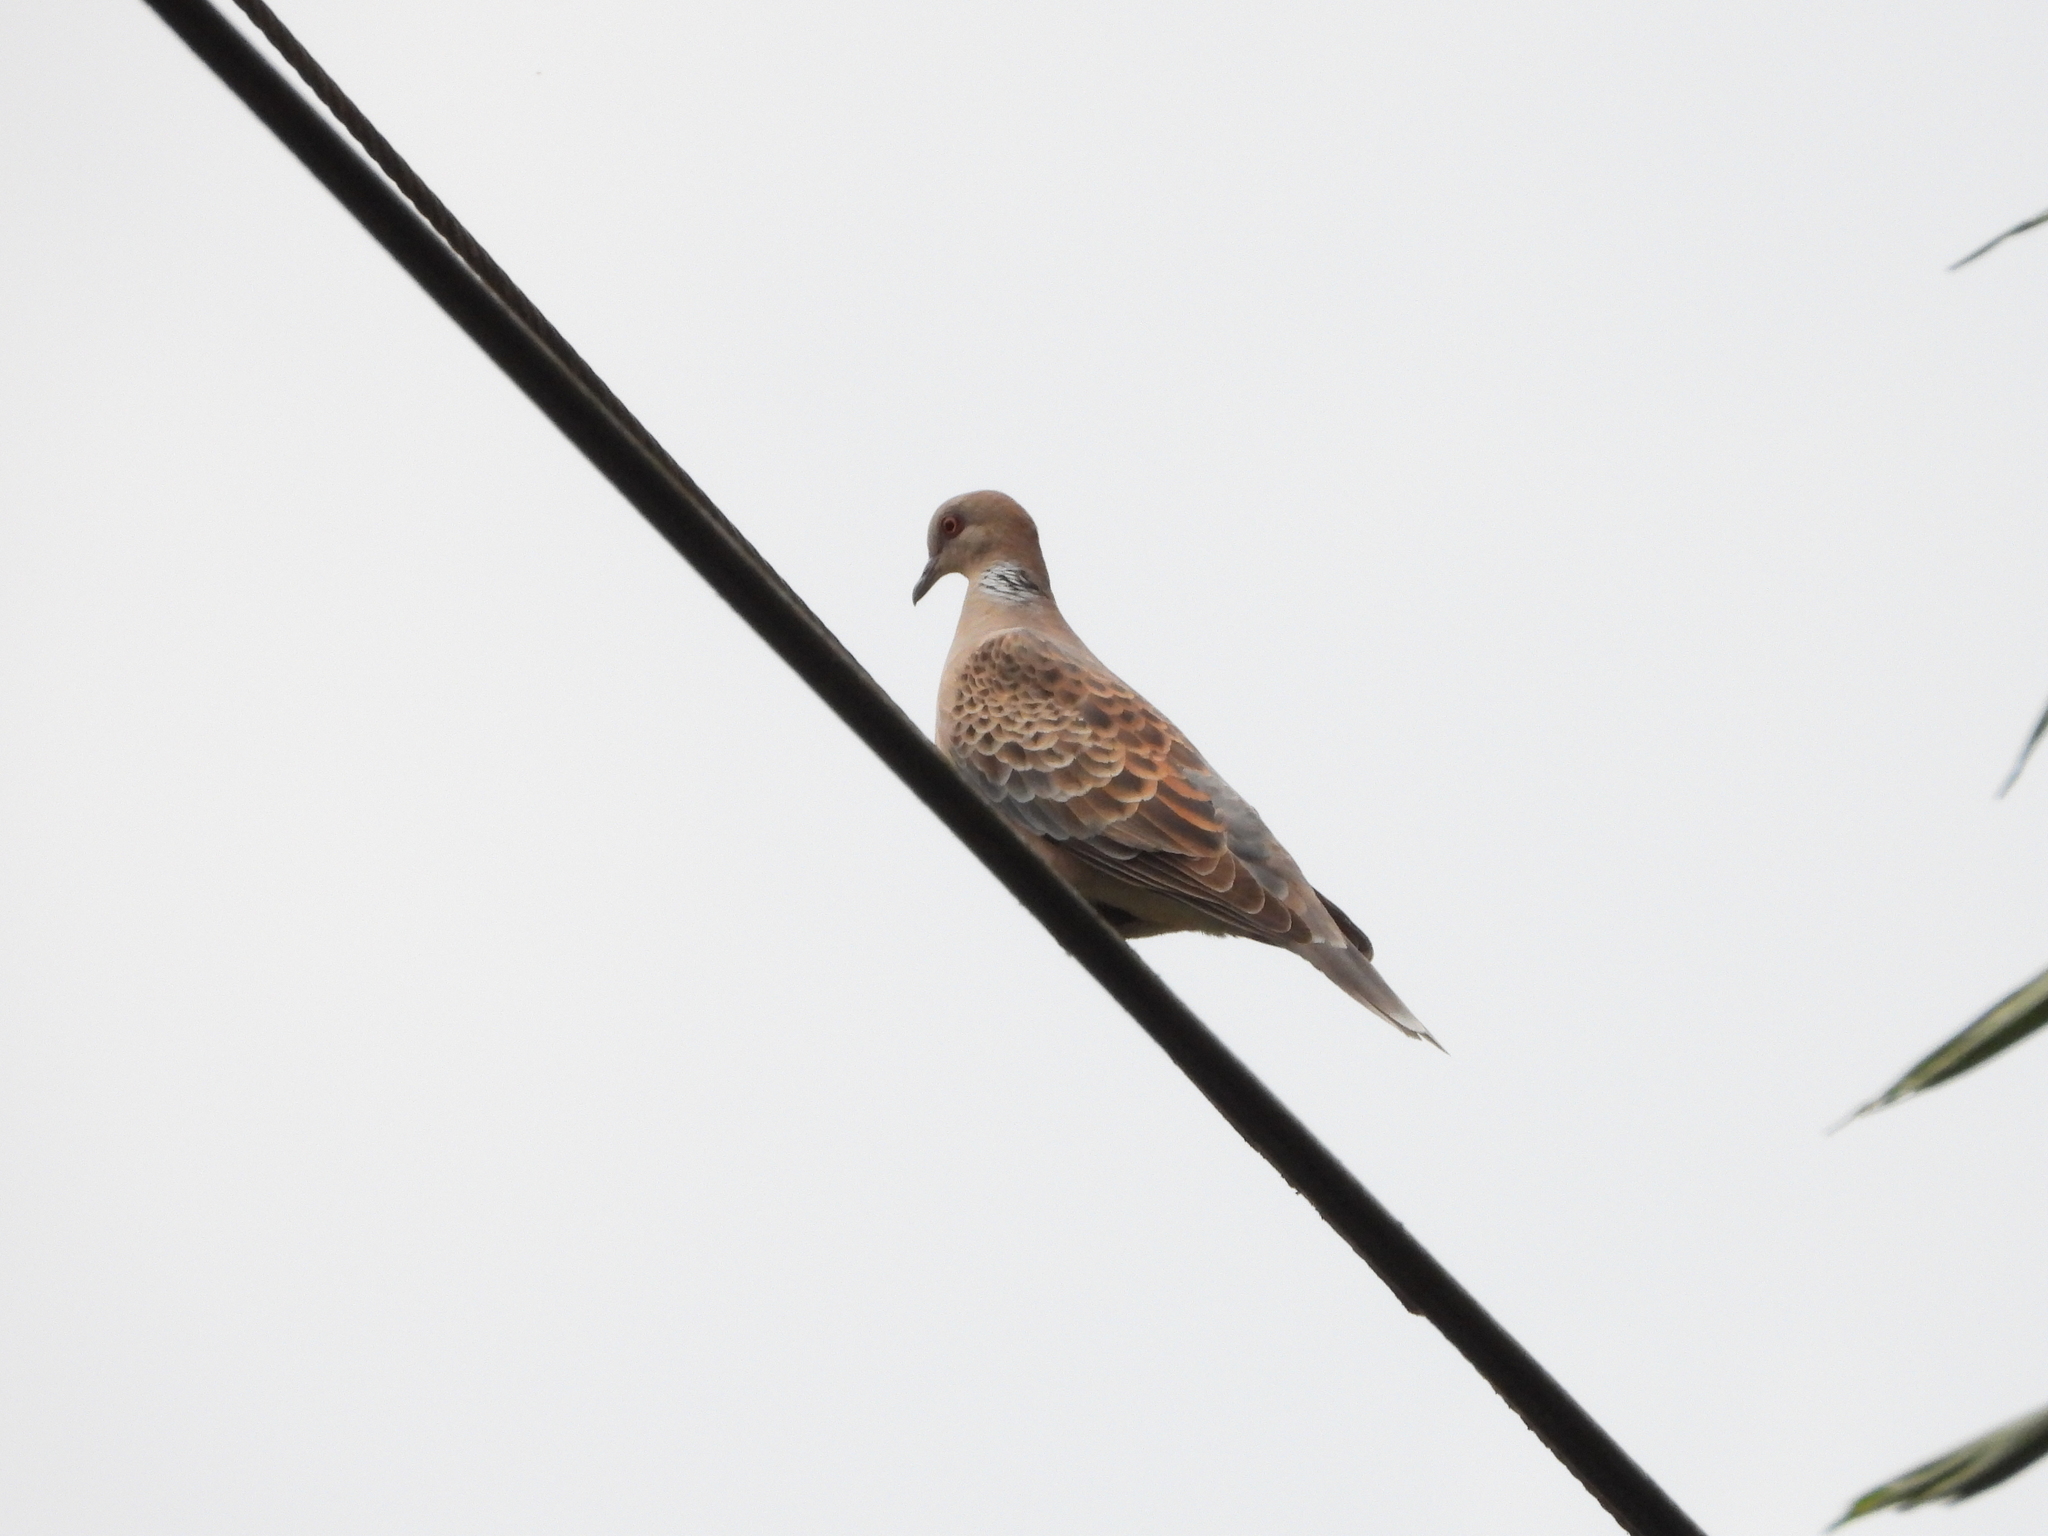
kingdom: Animalia
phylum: Chordata
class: Aves
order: Columbiformes
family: Columbidae
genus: Streptopelia
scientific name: Streptopelia orientalis
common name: Oriental turtle dove
